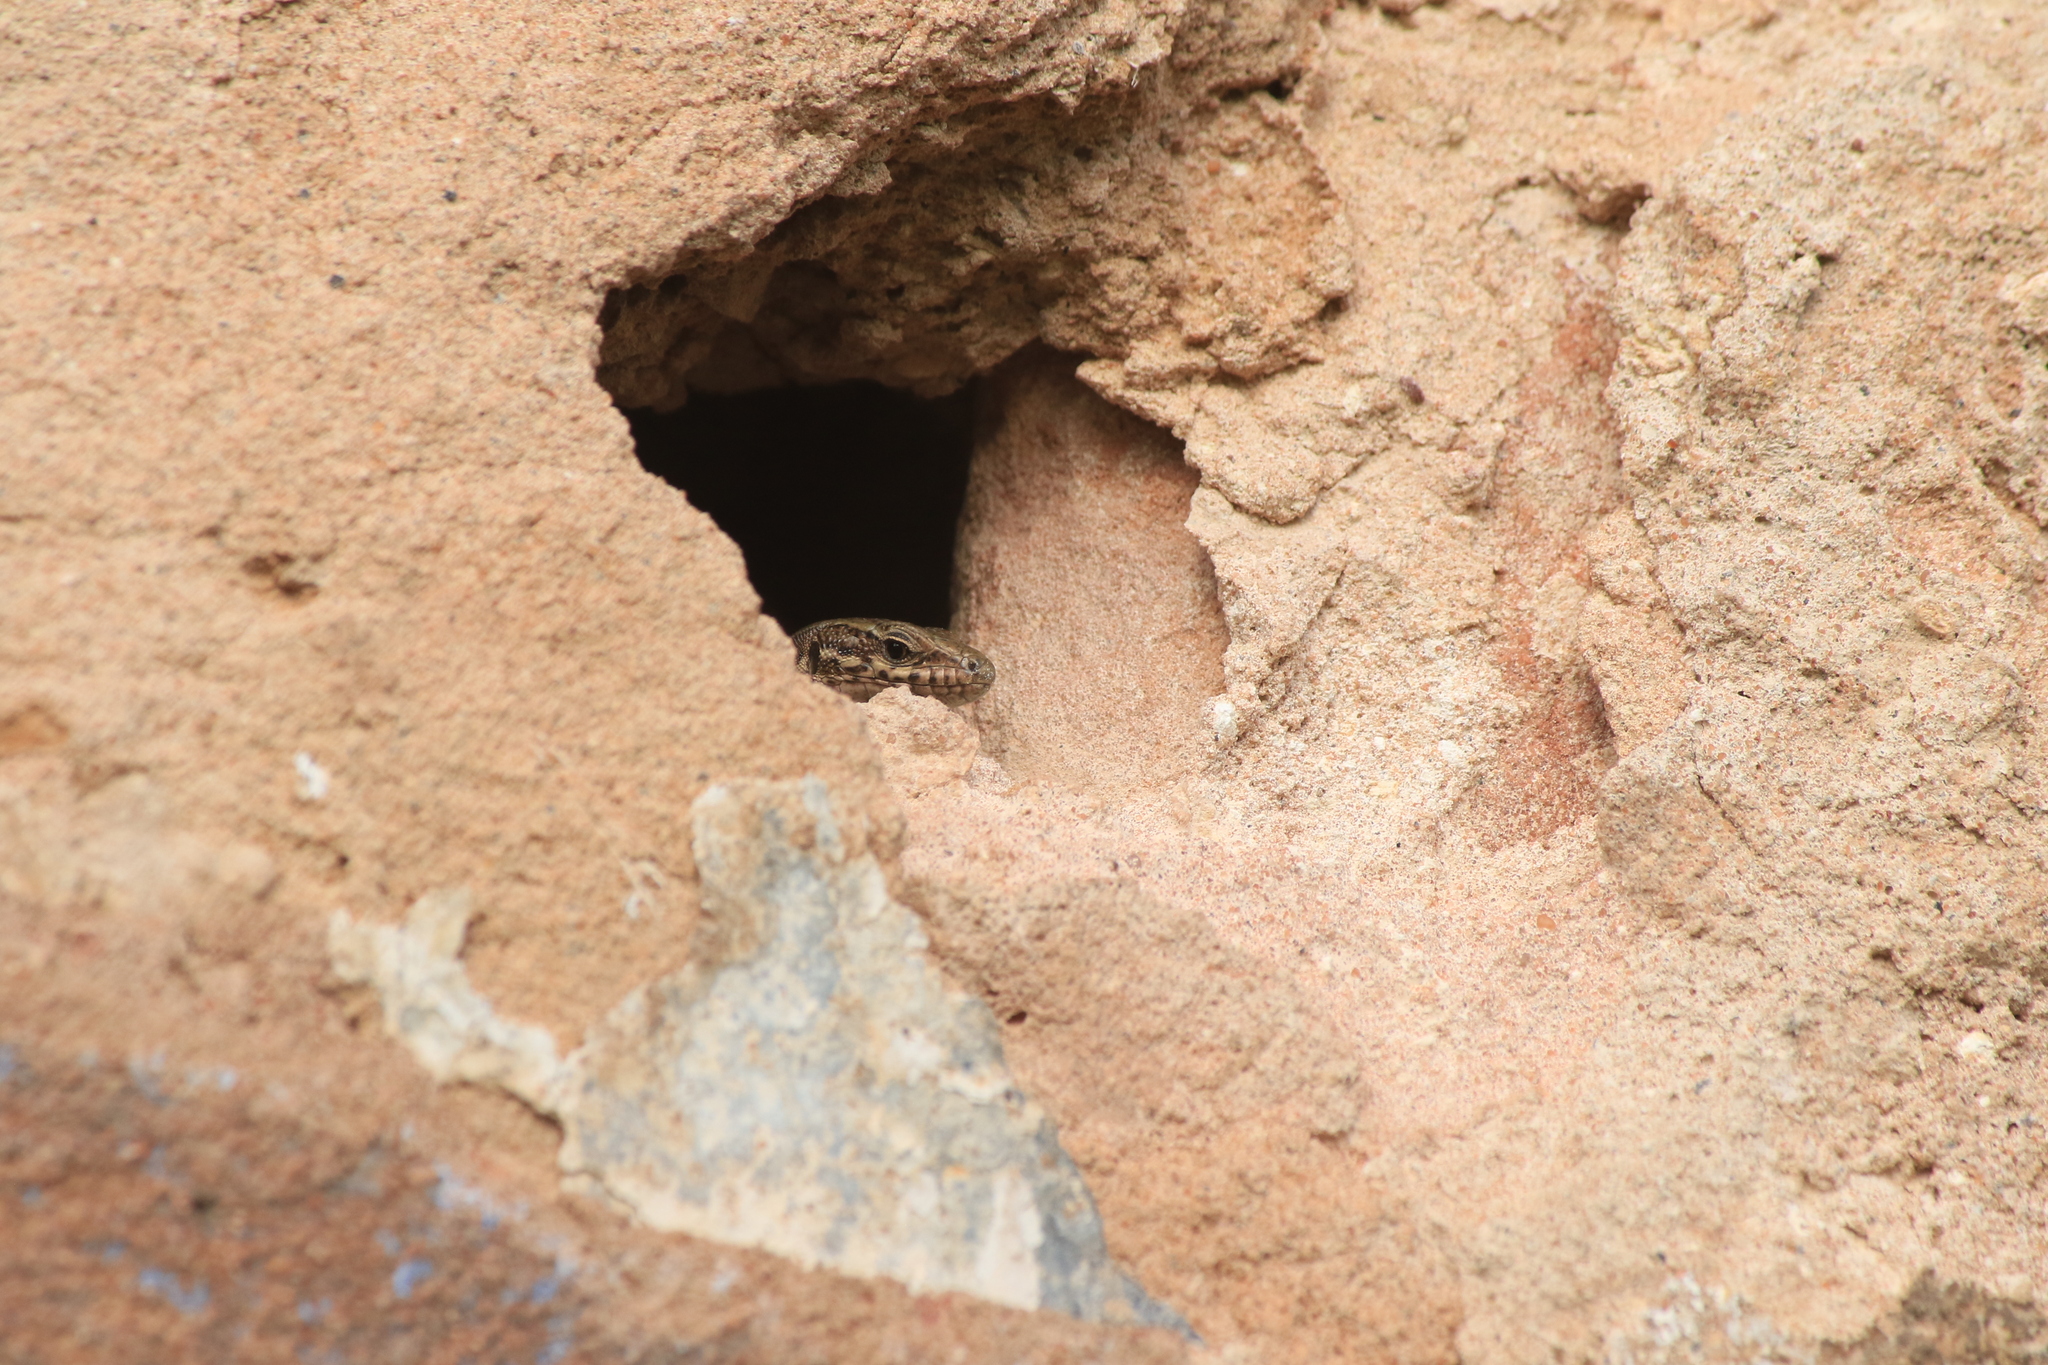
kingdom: Animalia
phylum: Chordata
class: Squamata
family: Lacertidae
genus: Podarcis
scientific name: Podarcis muralis
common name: Common wall lizard
